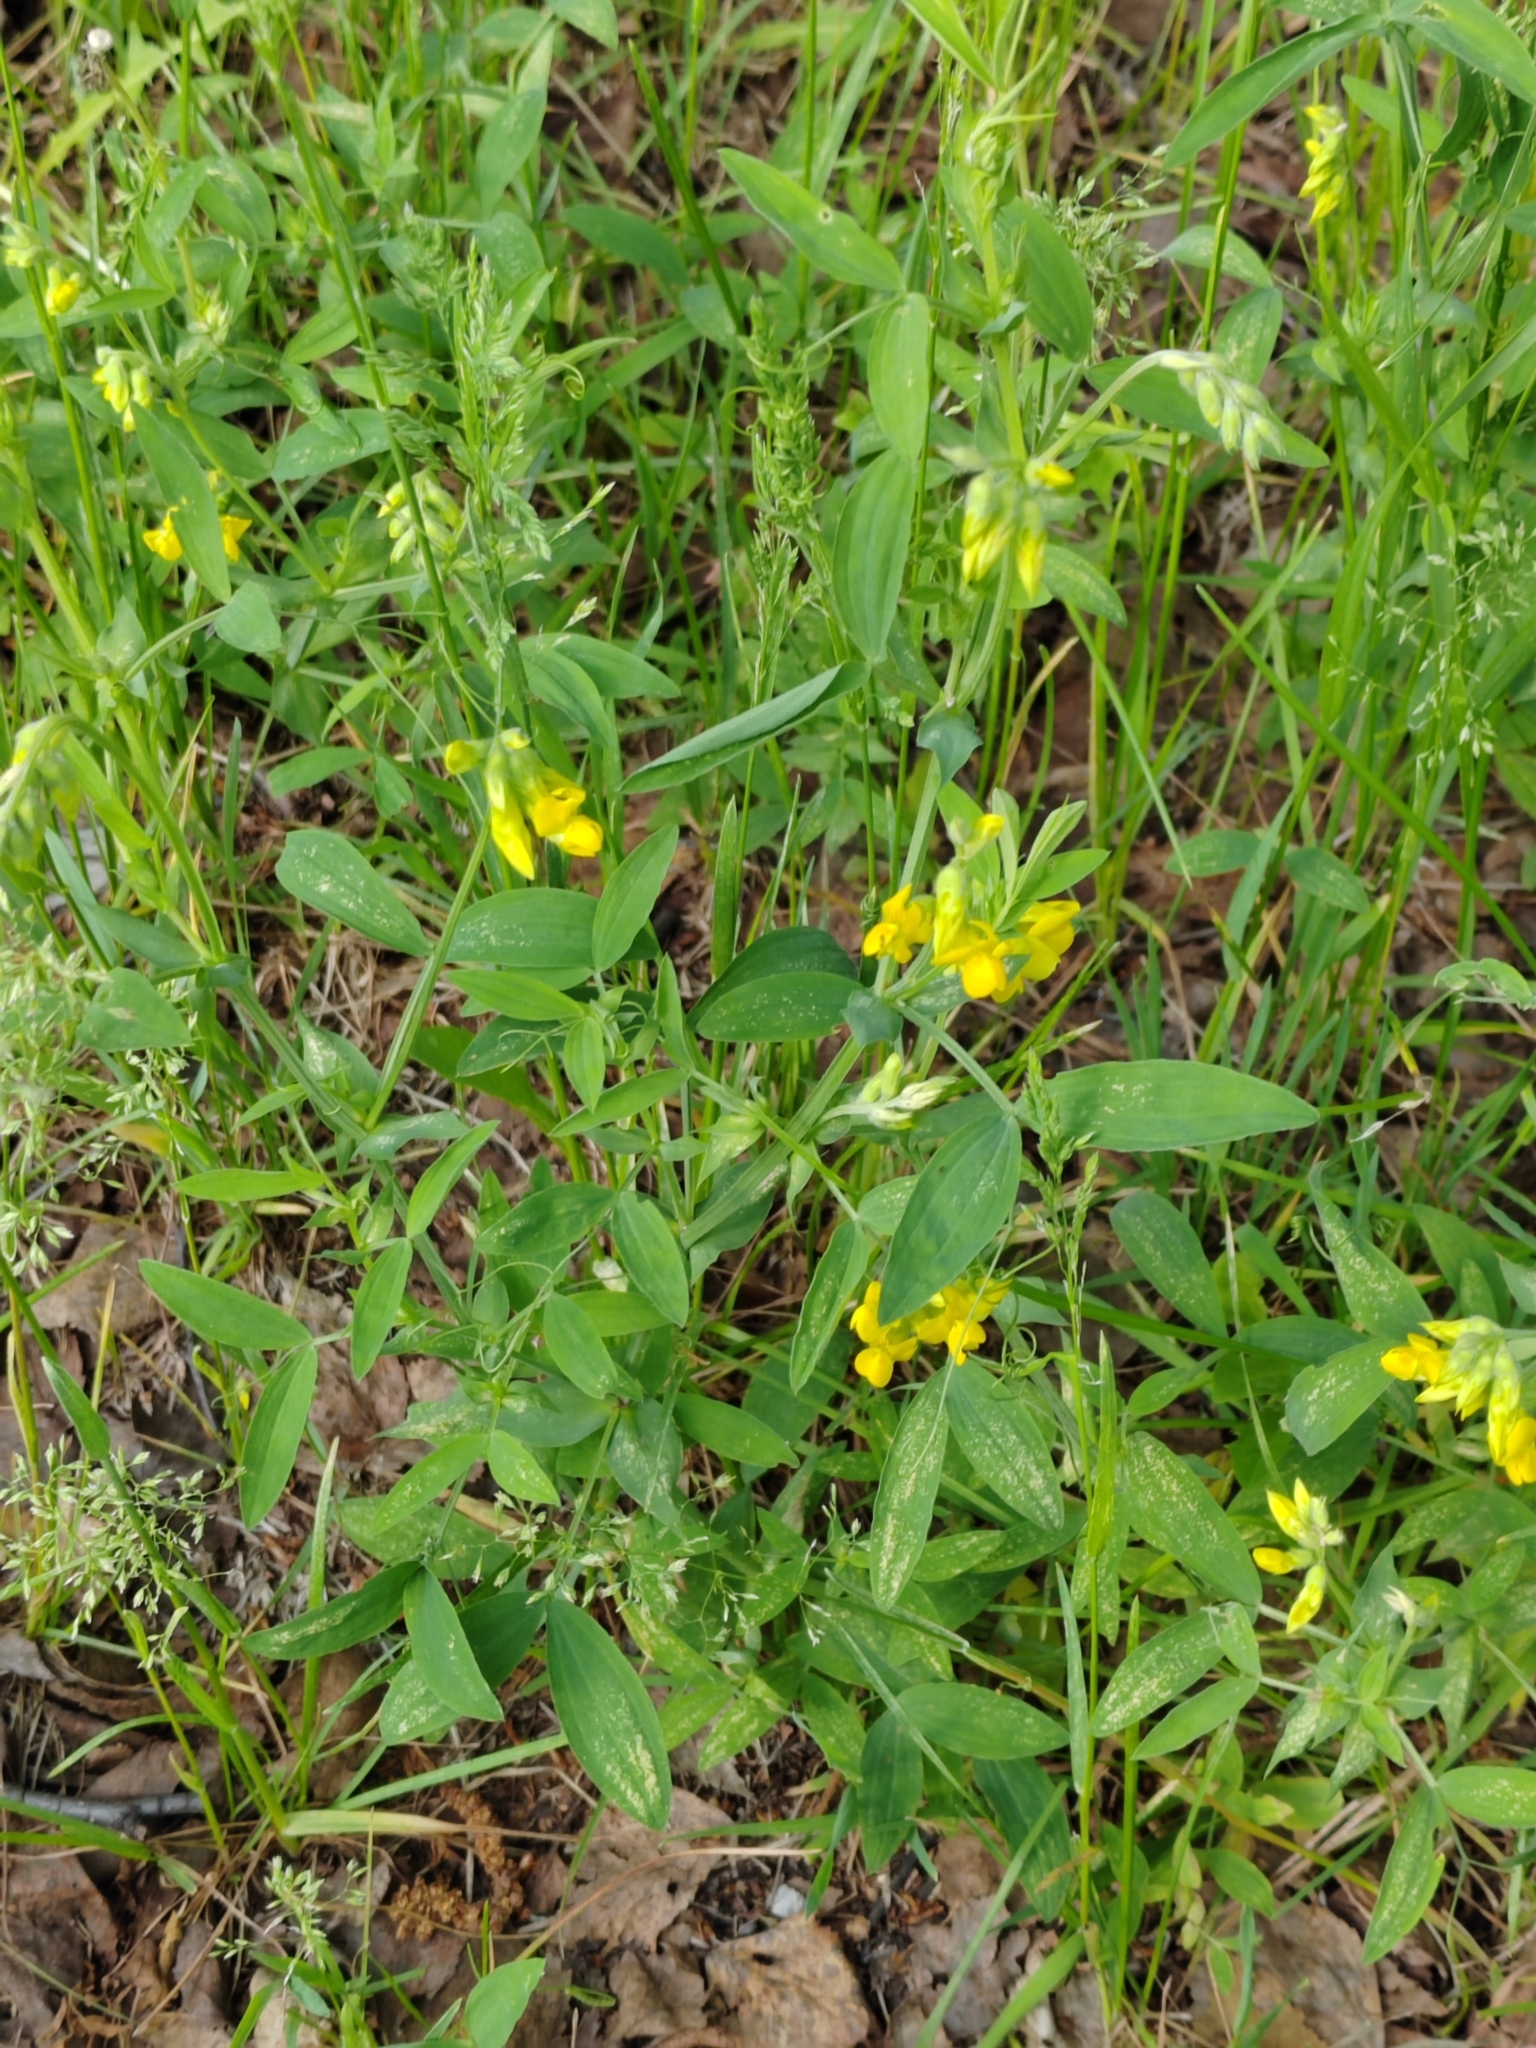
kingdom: Plantae
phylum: Tracheophyta
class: Magnoliopsida
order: Fabales
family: Fabaceae
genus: Lathyrus
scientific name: Lathyrus pratensis
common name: Meadow vetchling
